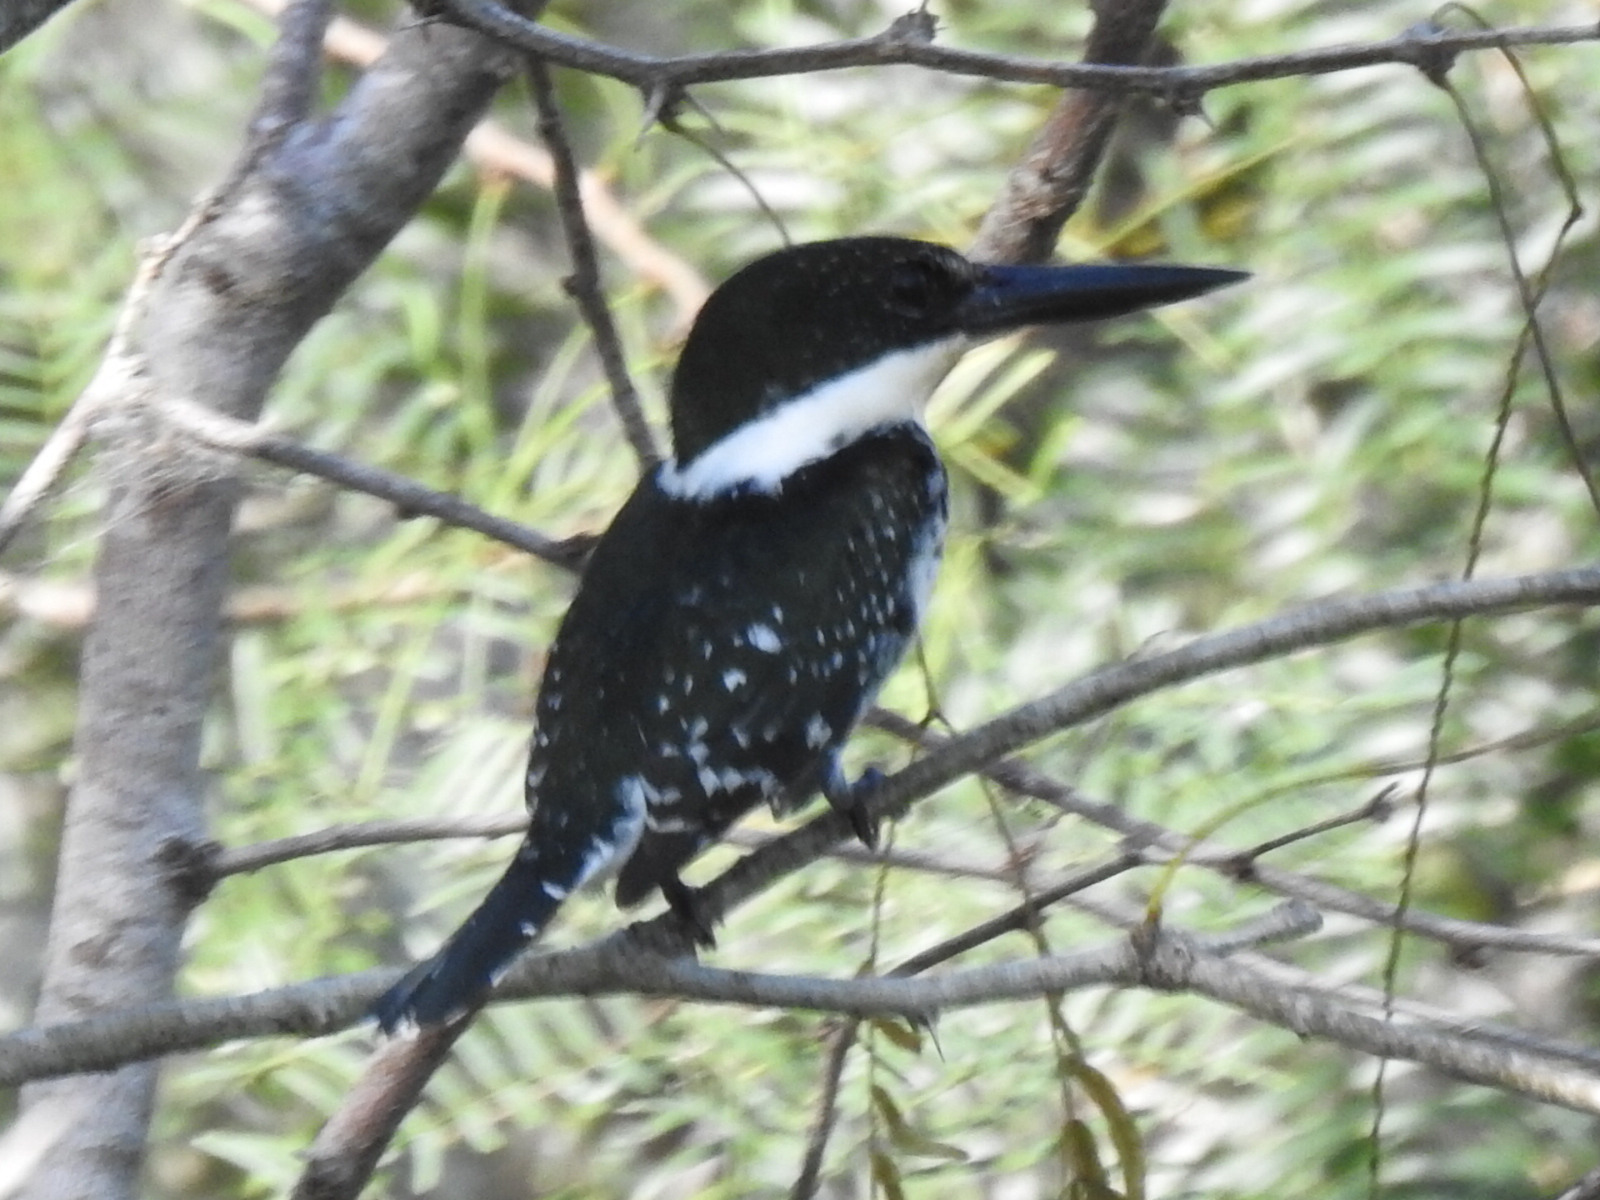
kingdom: Animalia
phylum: Chordata
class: Aves
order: Coraciiformes
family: Alcedinidae
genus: Chloroceryle
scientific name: Chloroceryle americana
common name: Green kingfisher
